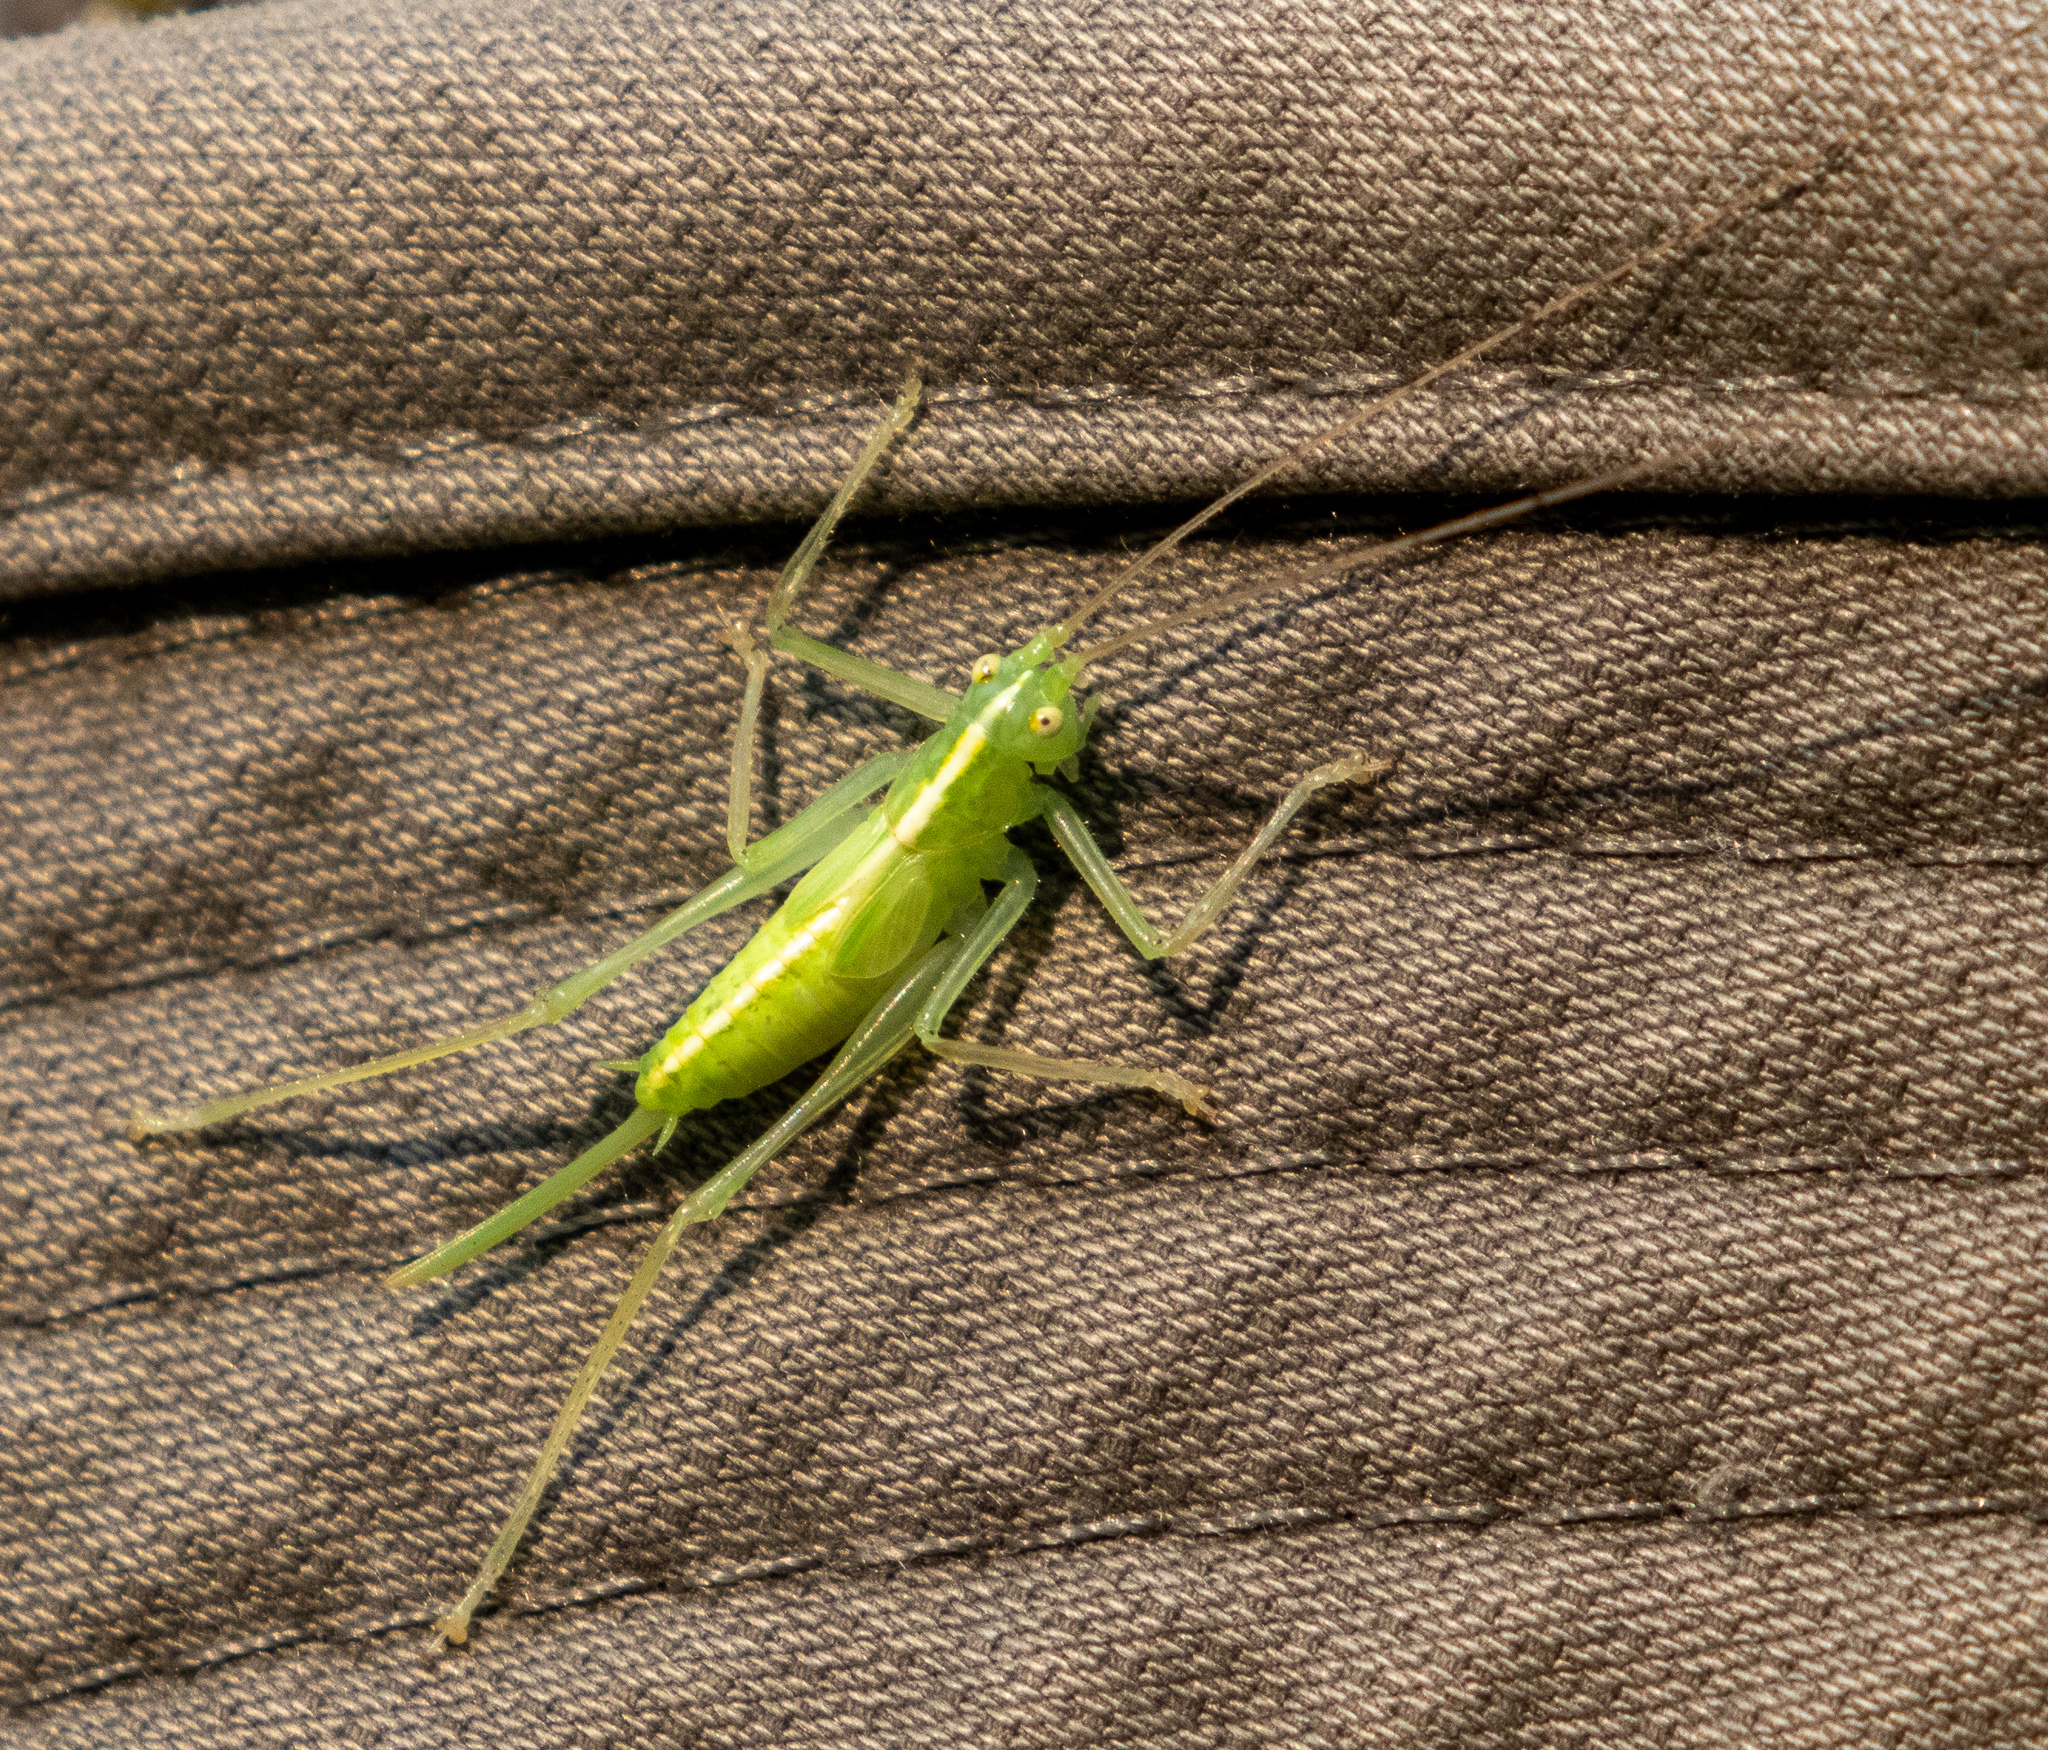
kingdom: Animalia
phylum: Arthropoda
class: Insecta
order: Orthoptera
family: Tettigoniidae
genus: Meconema
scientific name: Meconema thalassinum
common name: Oak bush-cricket
